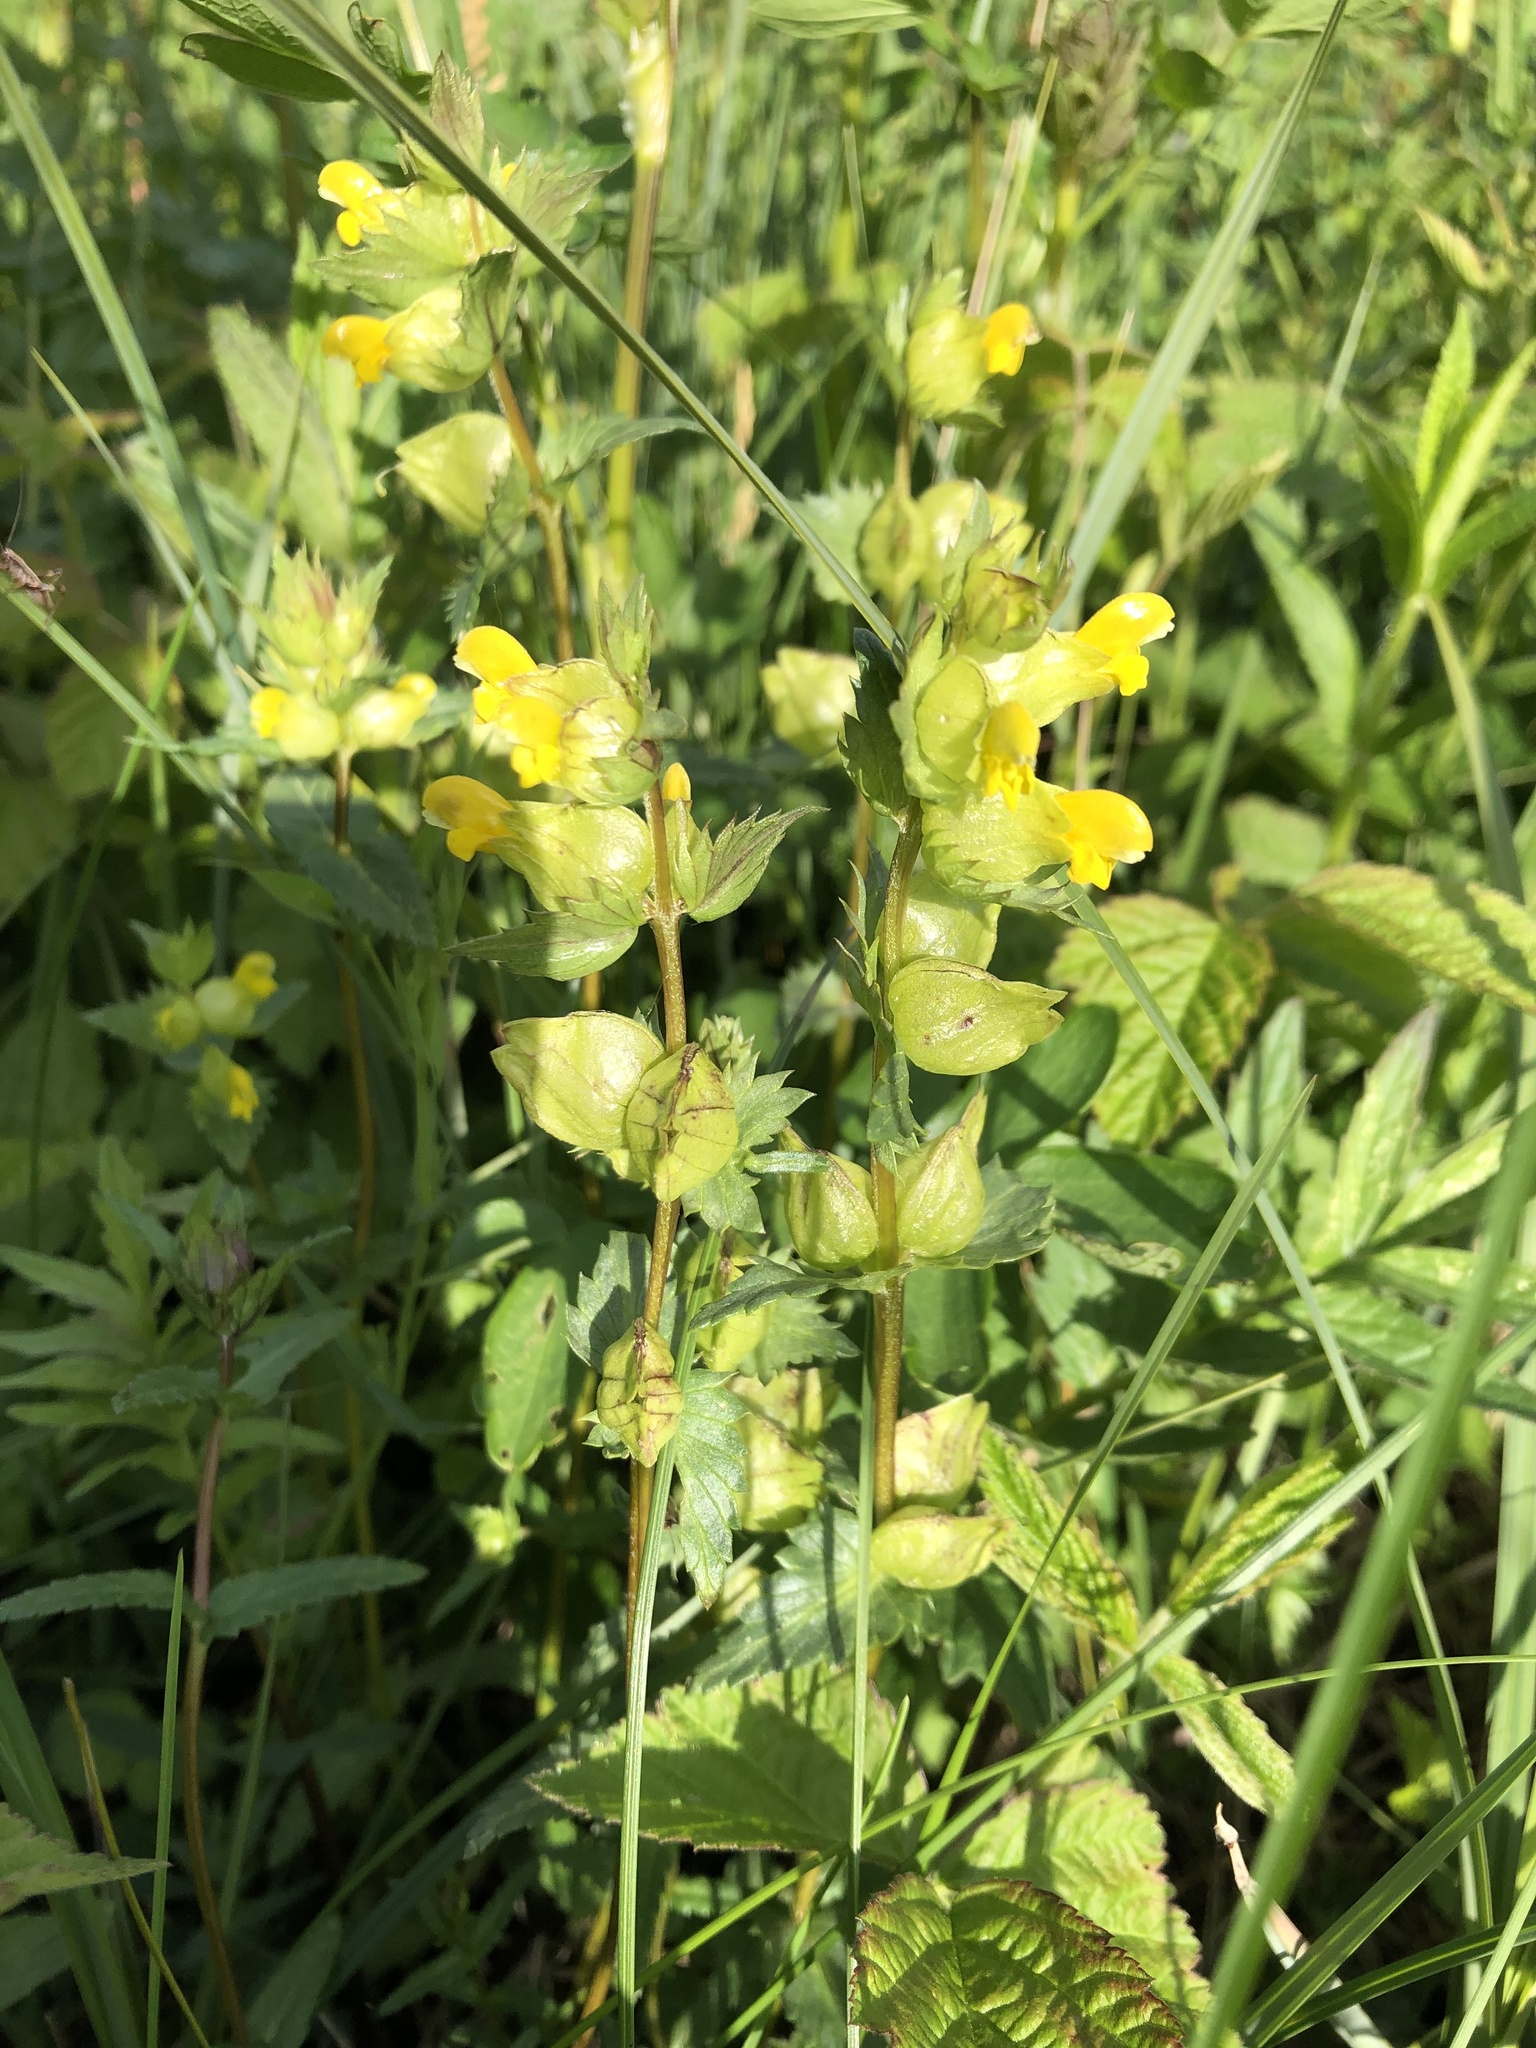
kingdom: Plantae
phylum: Tracheophyta
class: Magnoliopsida
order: Lamiales
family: Orobanchaceae
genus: Rhinanthus
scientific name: Rhinanthus minor
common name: Yellow-rattle
